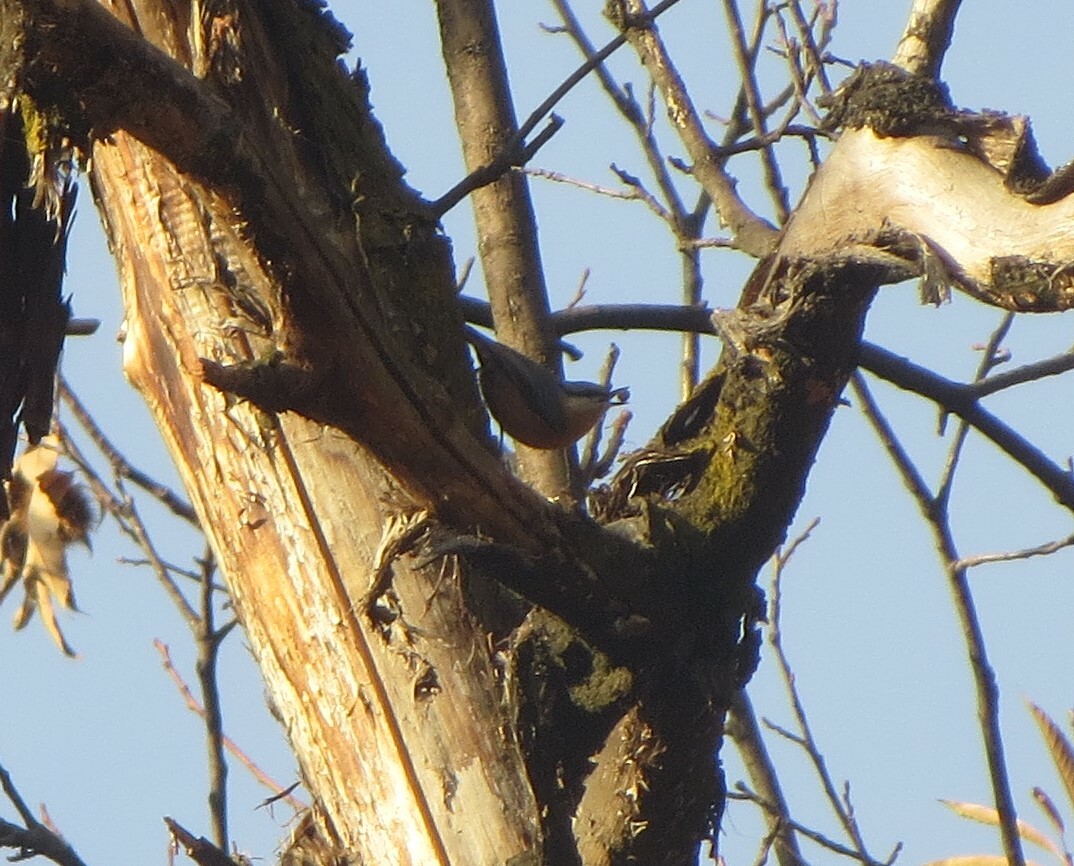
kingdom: Animalia
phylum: Chordata
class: Aves
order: Passeriformes
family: Sittidae
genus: Sitta
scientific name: Sitta europaea
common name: Eurasian nuthatch
